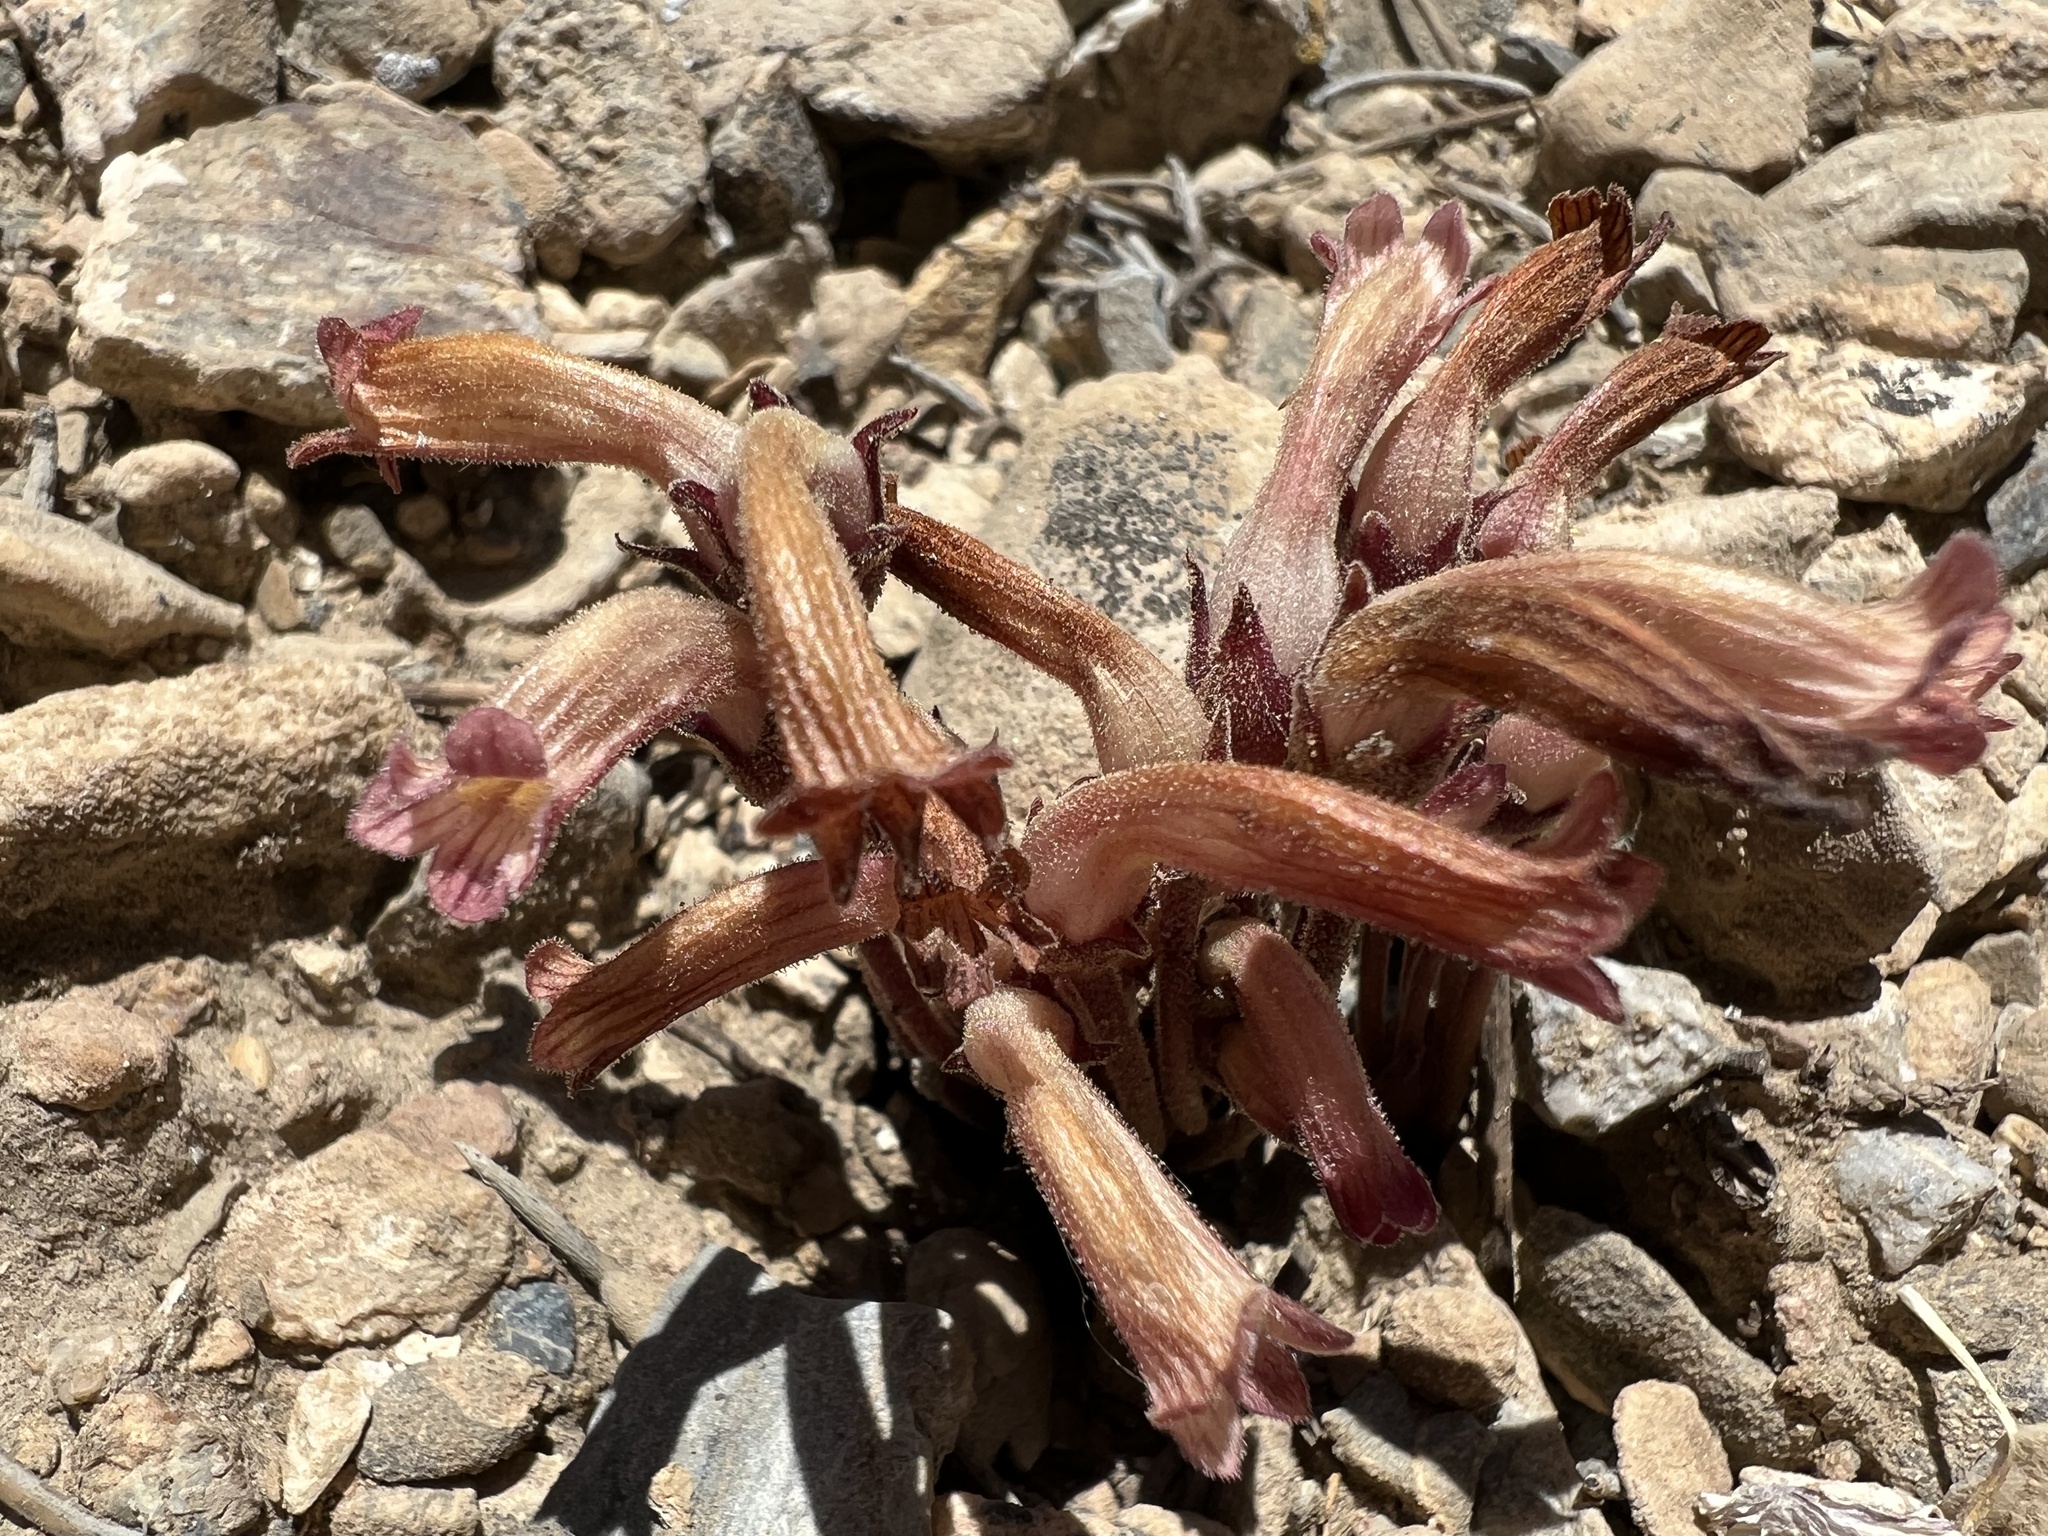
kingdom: Plantae
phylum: Tracheophyta
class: Magnoliopsida
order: Lamiales
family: Orobanchaceae
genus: Aphyllon
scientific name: Aphyllon fasciculatum
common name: Clustered broomrape
